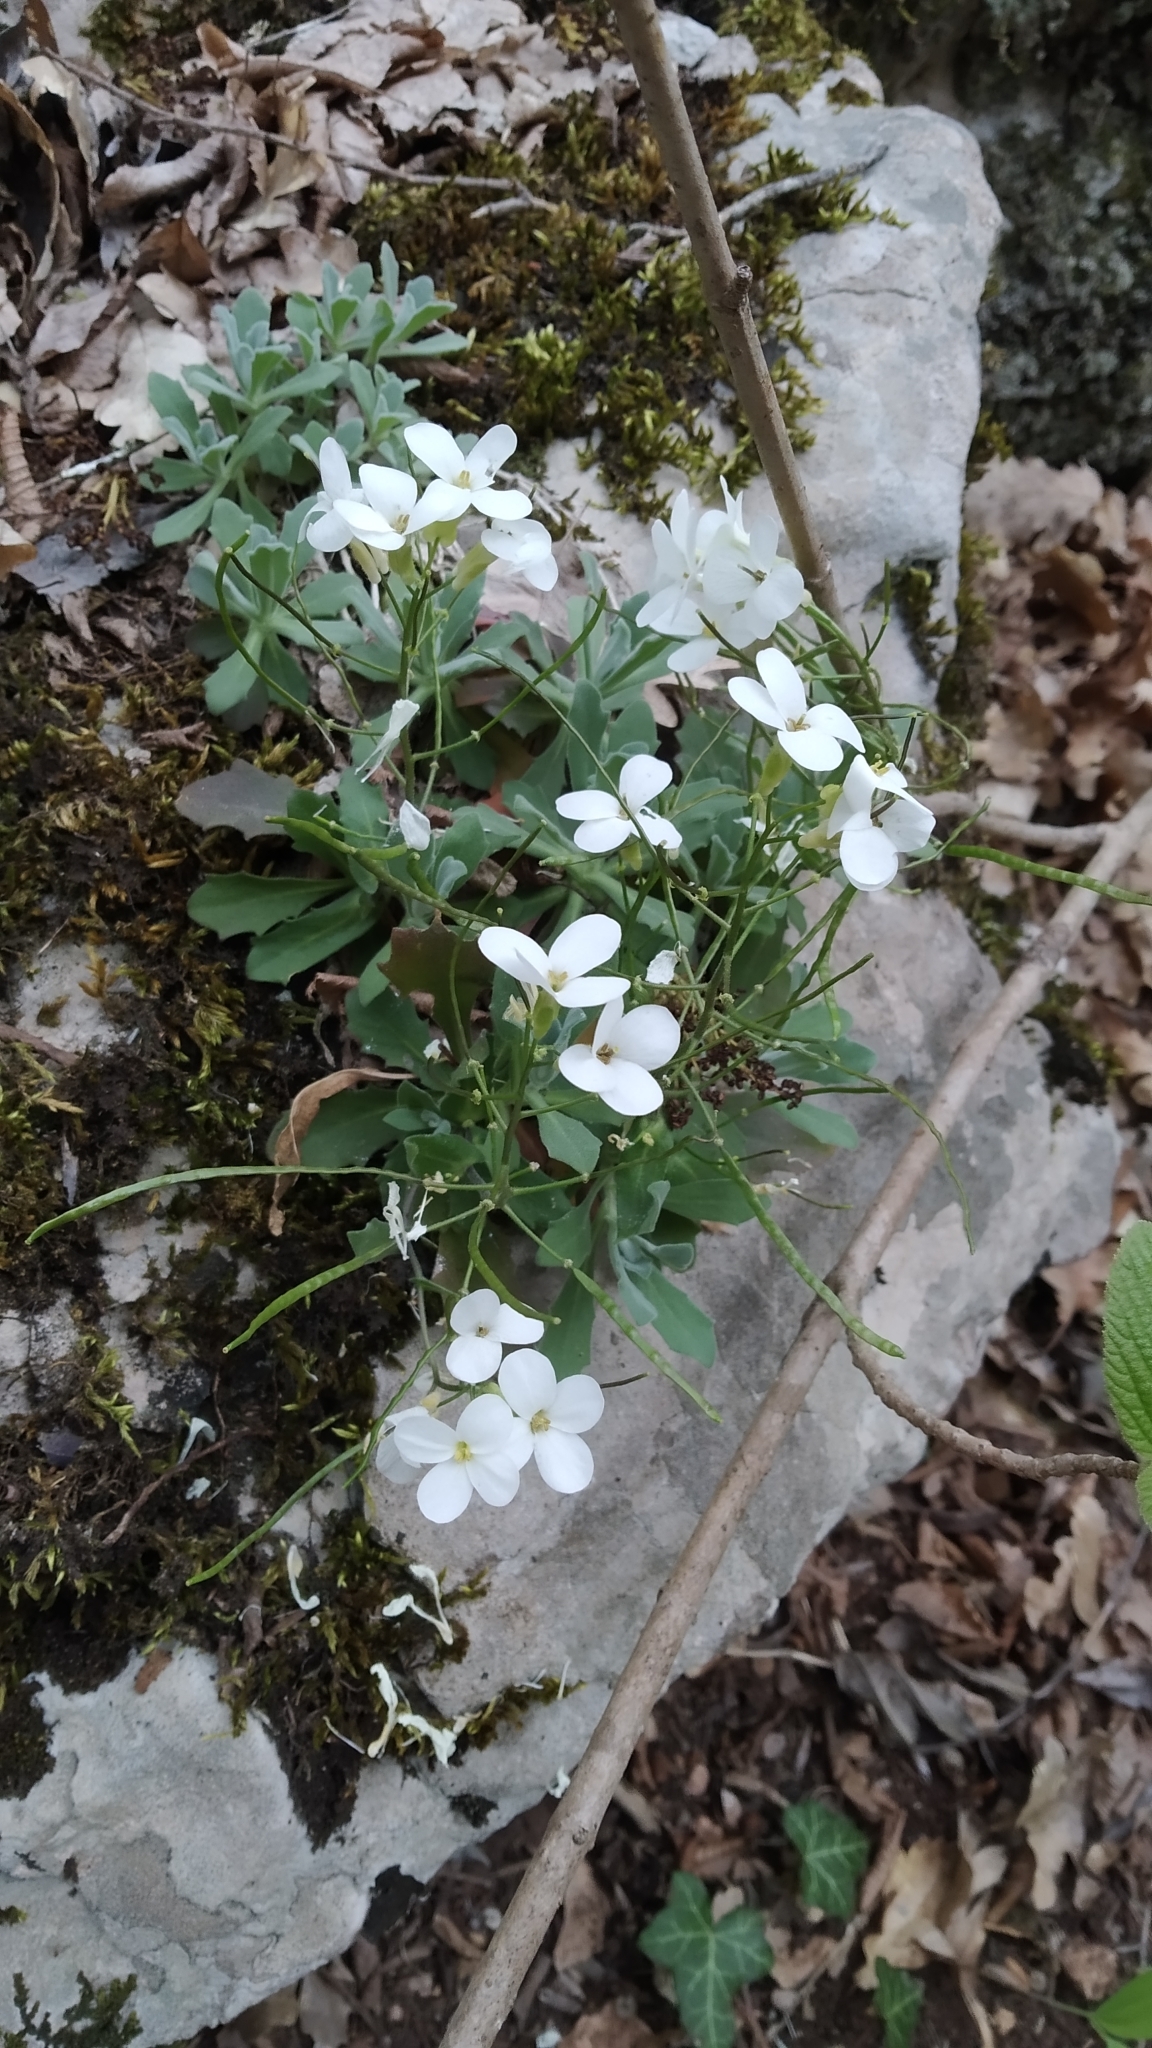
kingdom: Plantae
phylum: Tracheophyta
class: Magnoliopsida
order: Brassicales
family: Brassicaceae
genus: Arabis
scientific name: Arabis caucasica
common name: Gray rockcress
